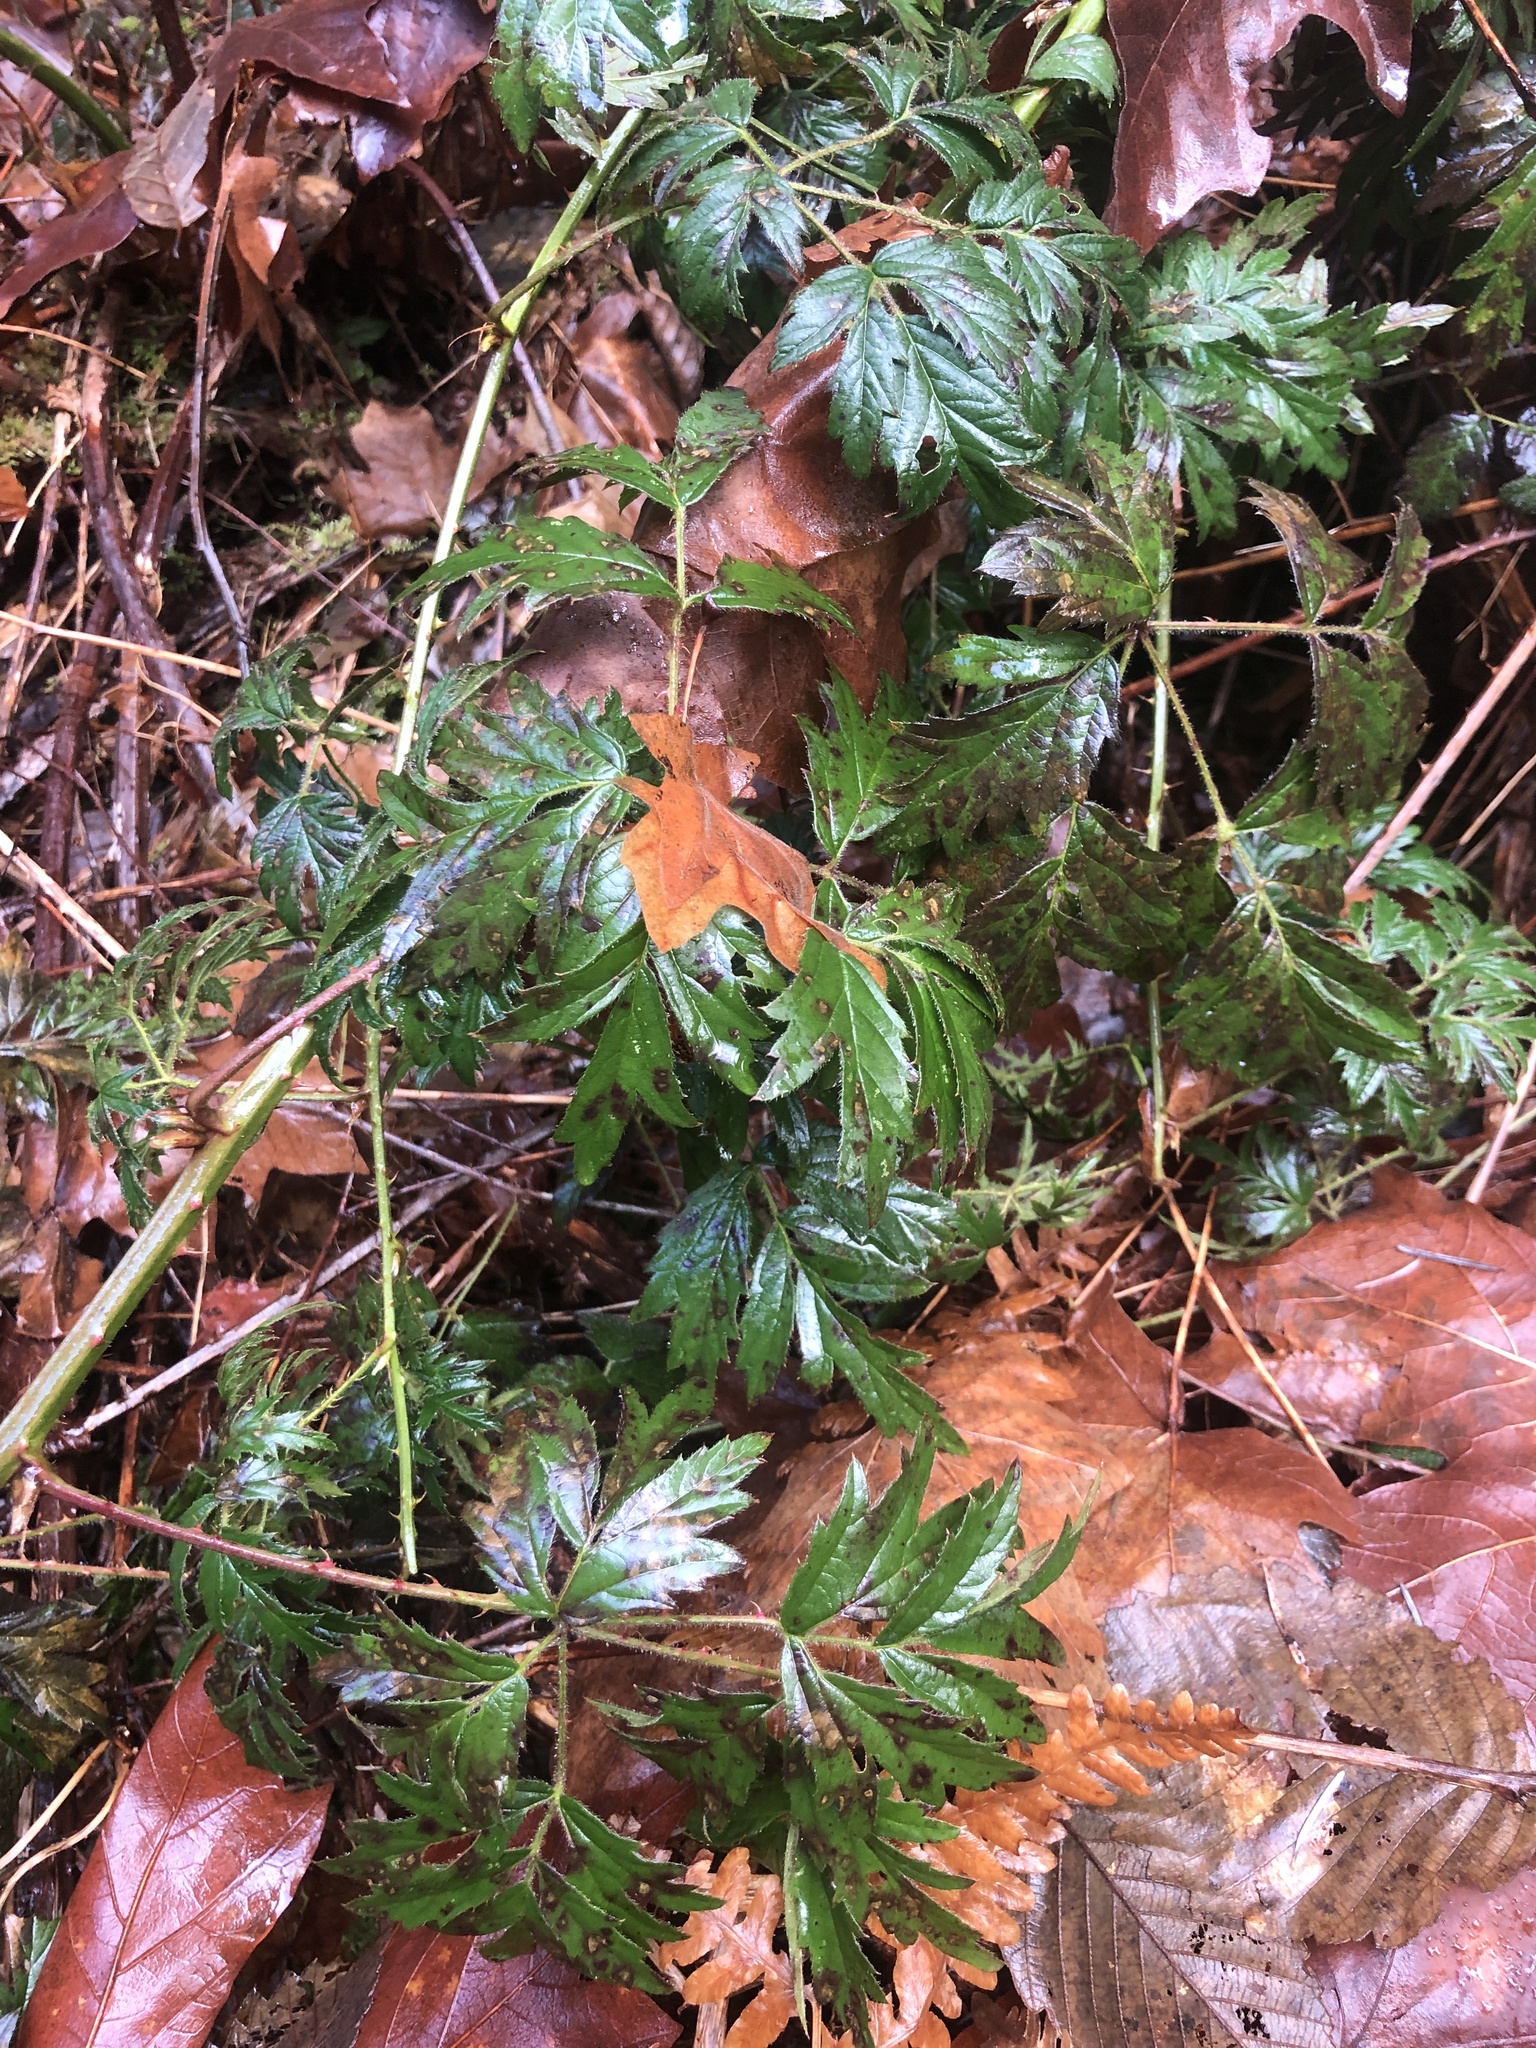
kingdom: Plantae
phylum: Tracheophyta
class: Magnoliopsida
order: Rosales
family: Rosaceae
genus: Rubus
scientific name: Rubus laciniatus
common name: Evergreen blackberry
